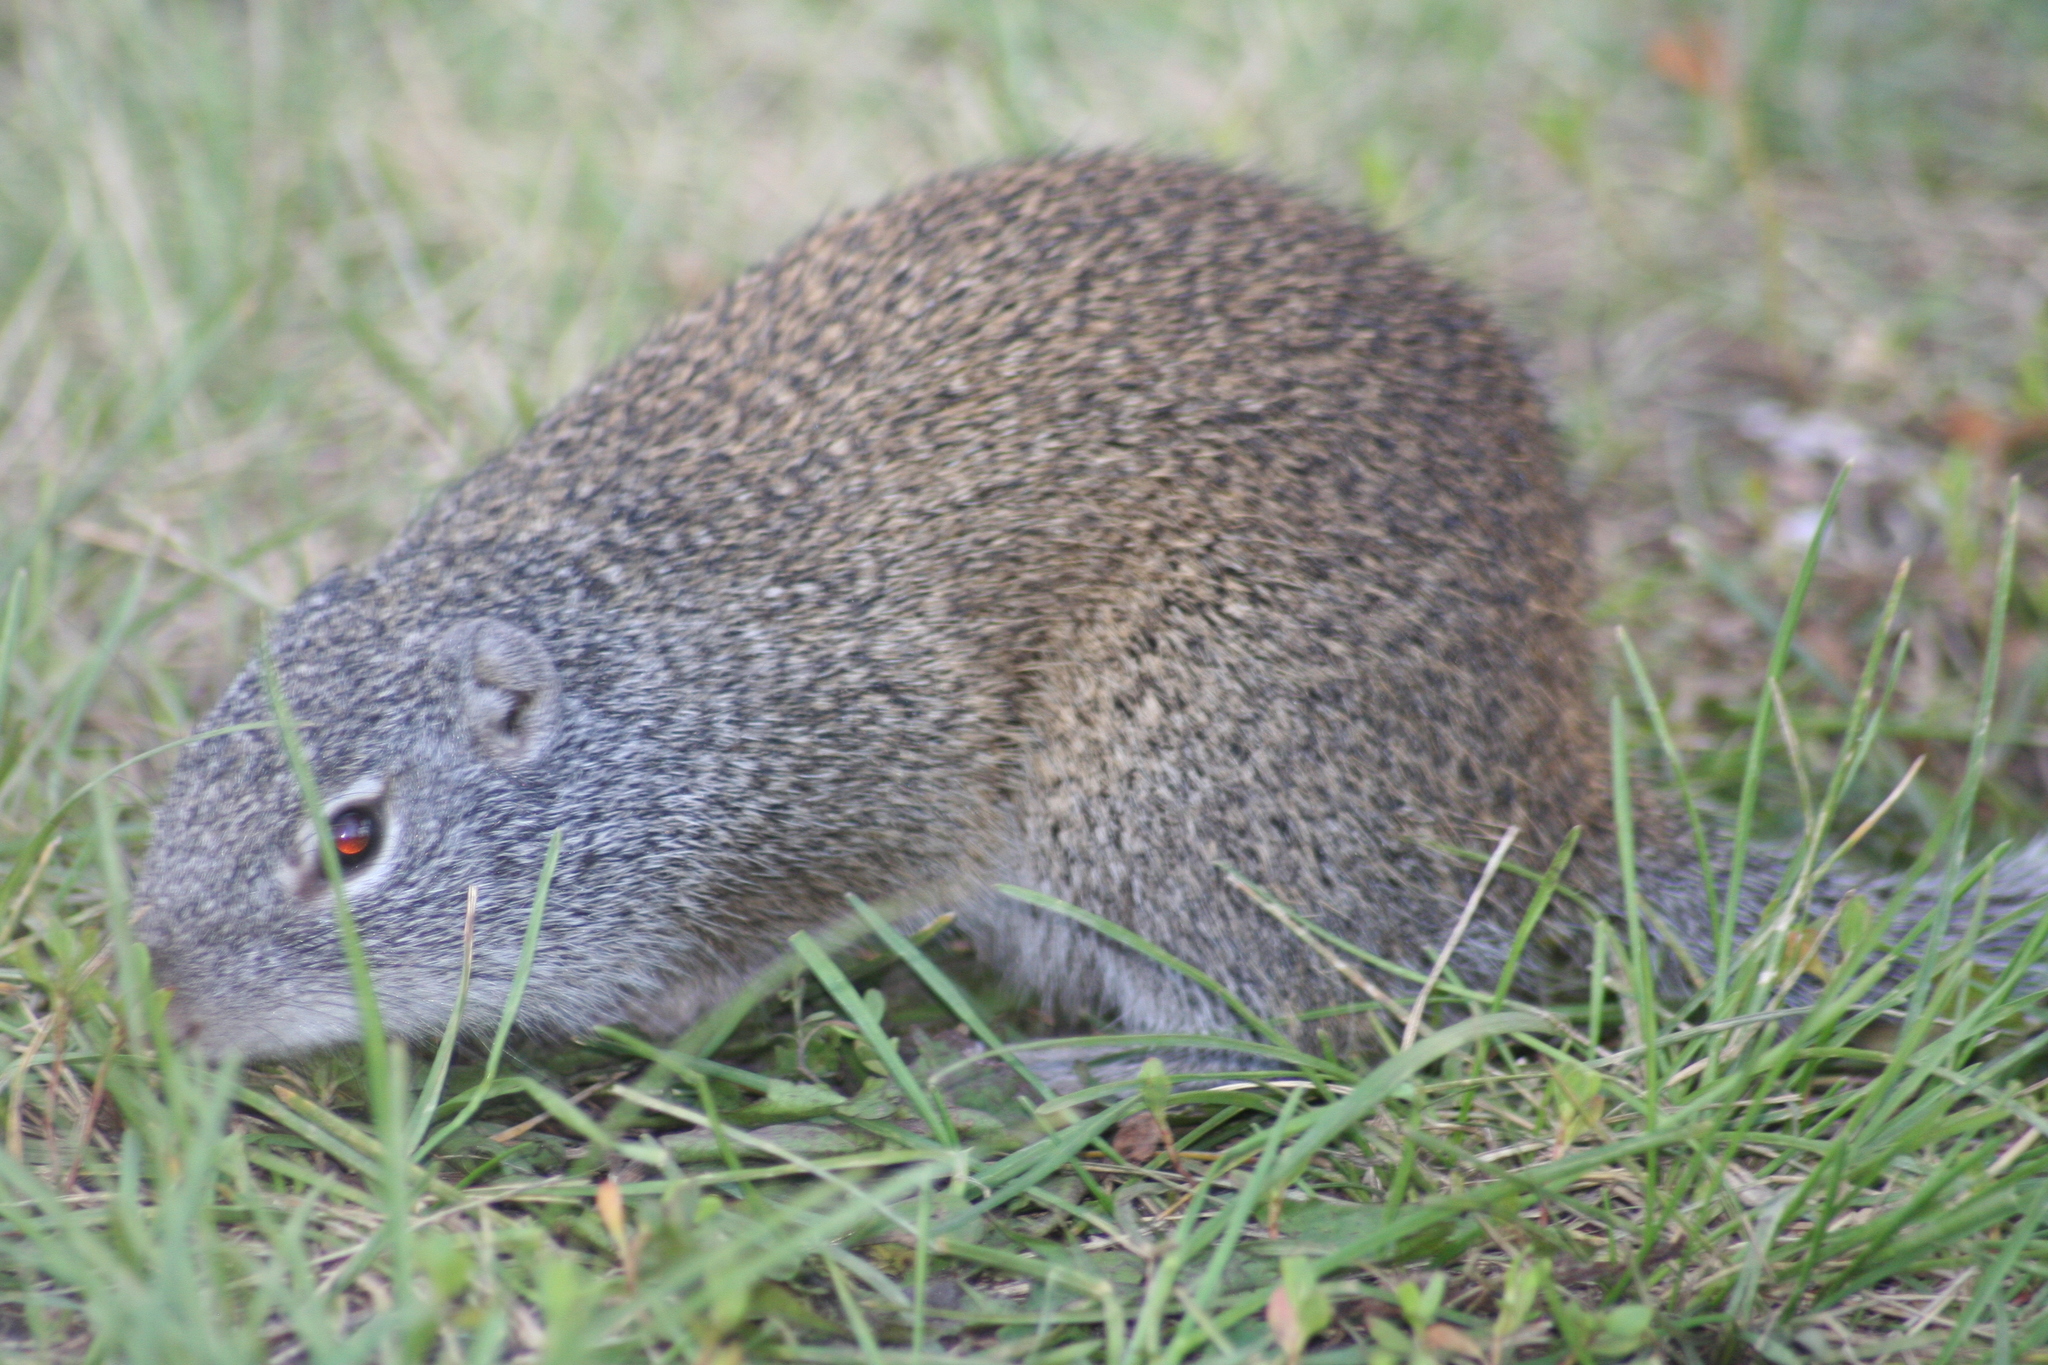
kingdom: Animalia
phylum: Chordata
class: Mammalia
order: Rodentia
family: Sciuridae
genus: Poliocitellus
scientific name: Poliocitellus franklinii
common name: Franklin's ground squirrel
